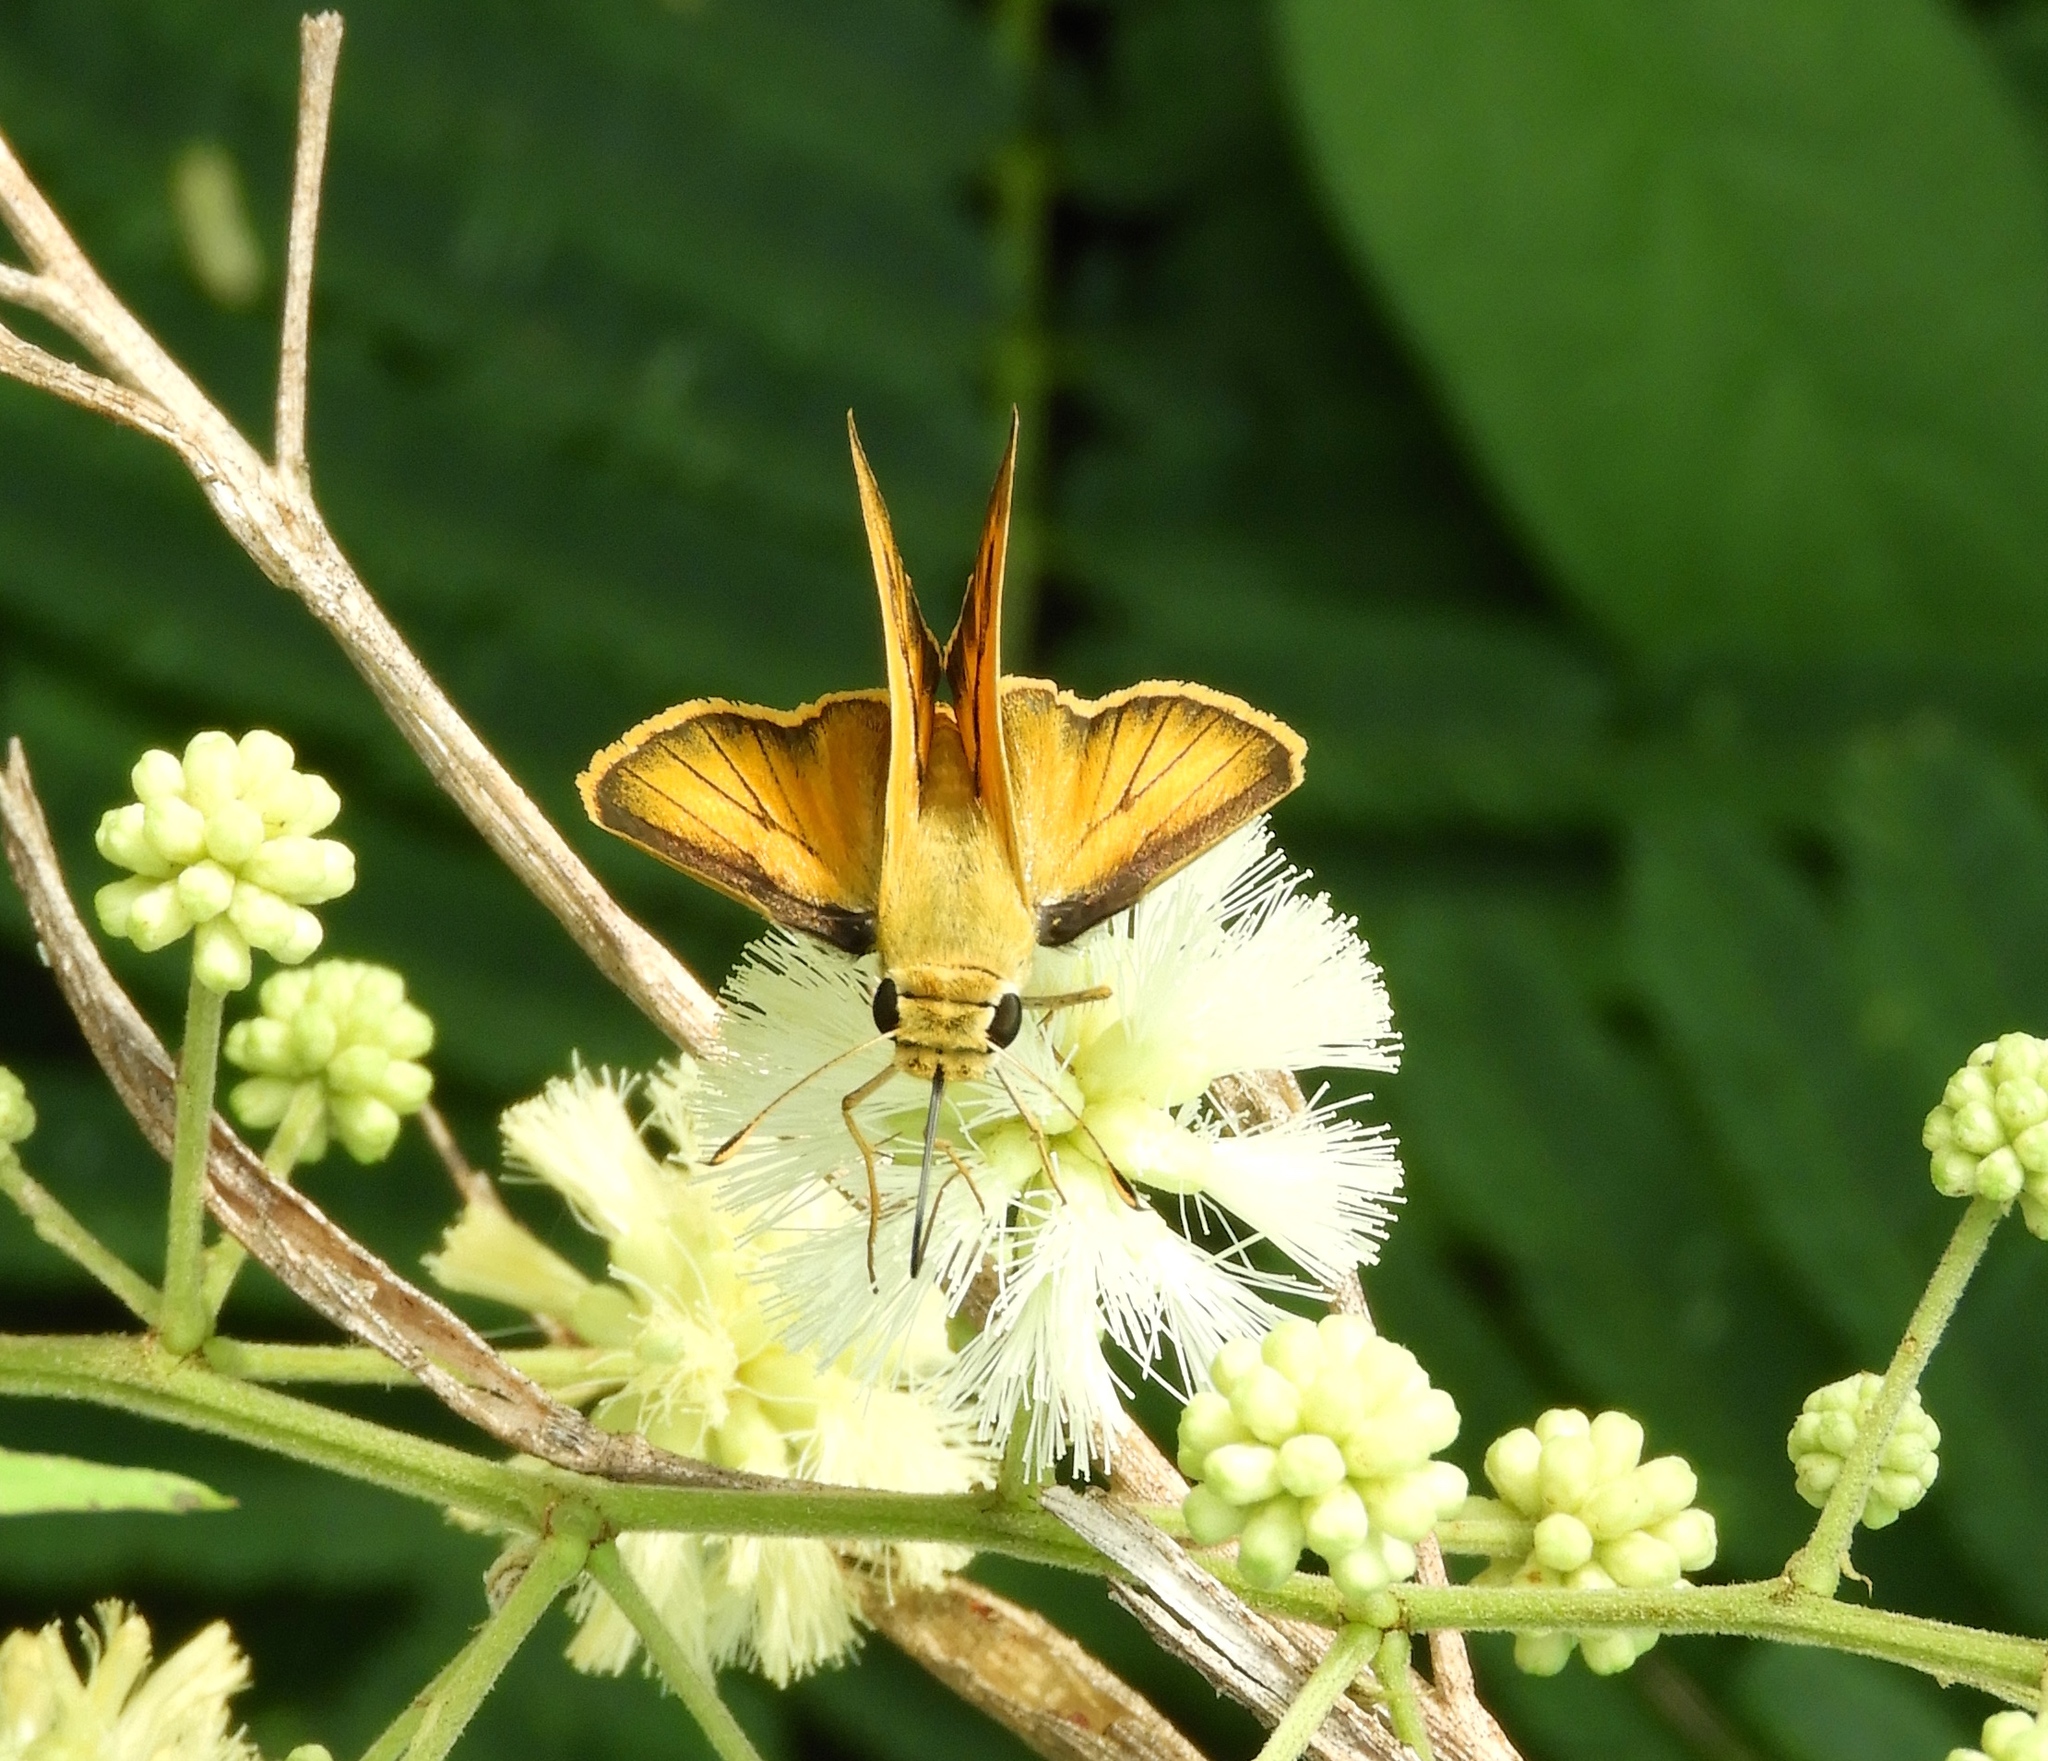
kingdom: Animalia
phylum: Arthropoda
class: Insecta
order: Lepidoptera
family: Hesperiidae
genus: Polites
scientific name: Polites vibex
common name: Whirlabout
